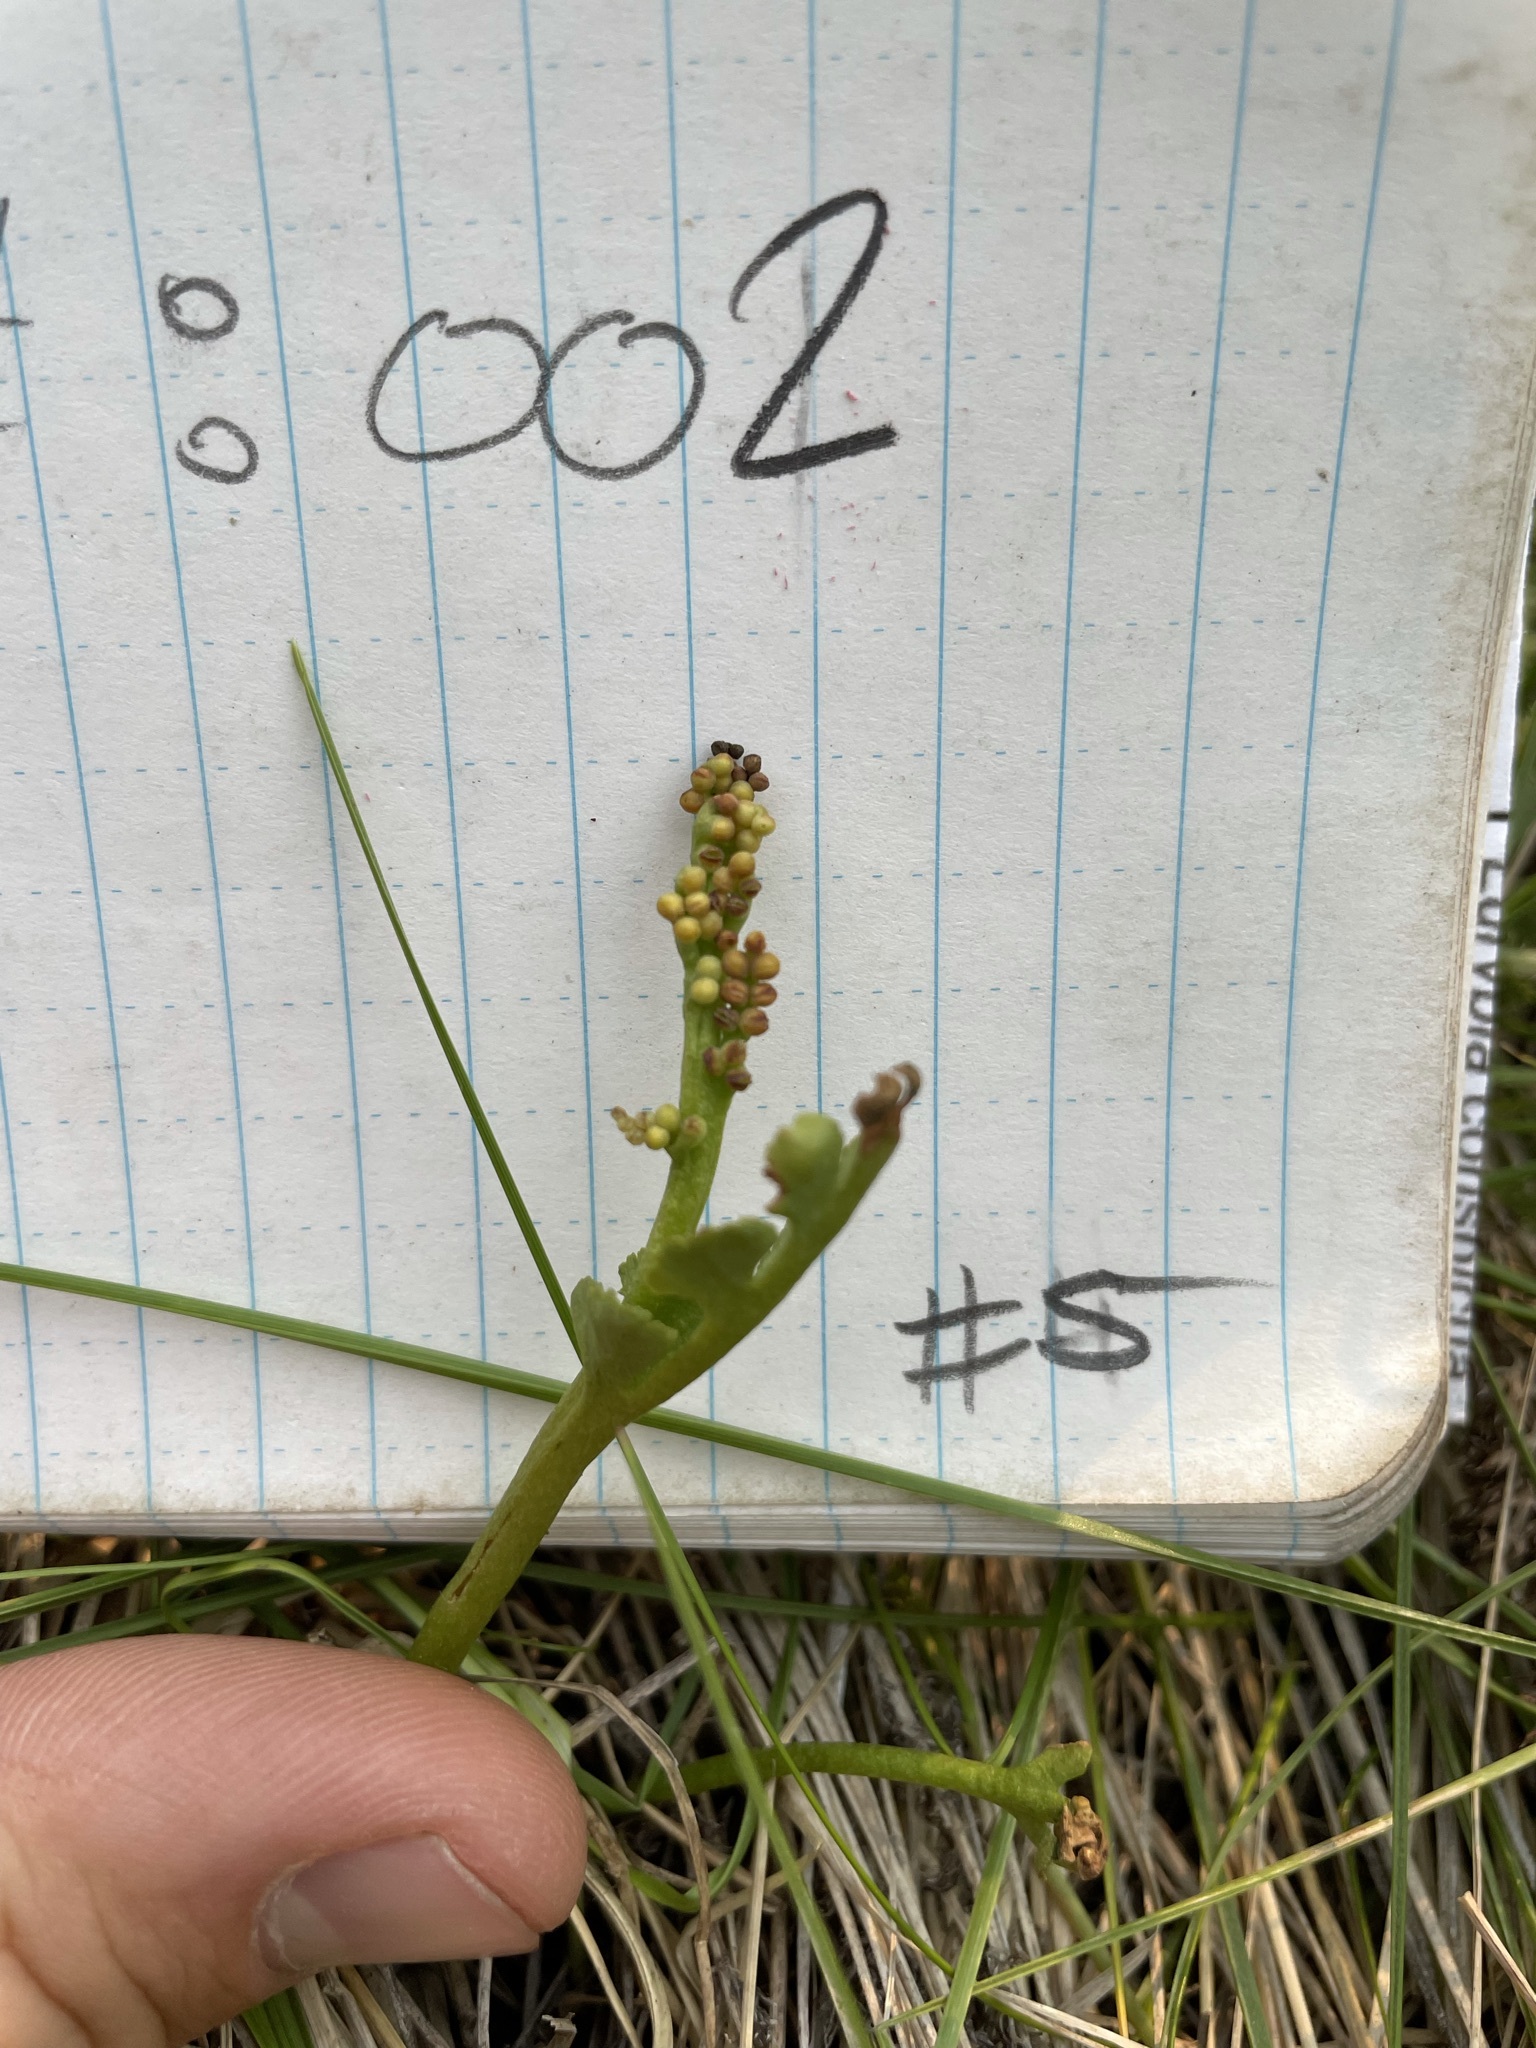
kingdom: Plantae
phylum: Tracheophyta
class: Polypodiopsida
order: Ophioglossales
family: Ophioglossaceae
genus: Botrychium
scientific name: Botrychium lunaria
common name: Moonwort
